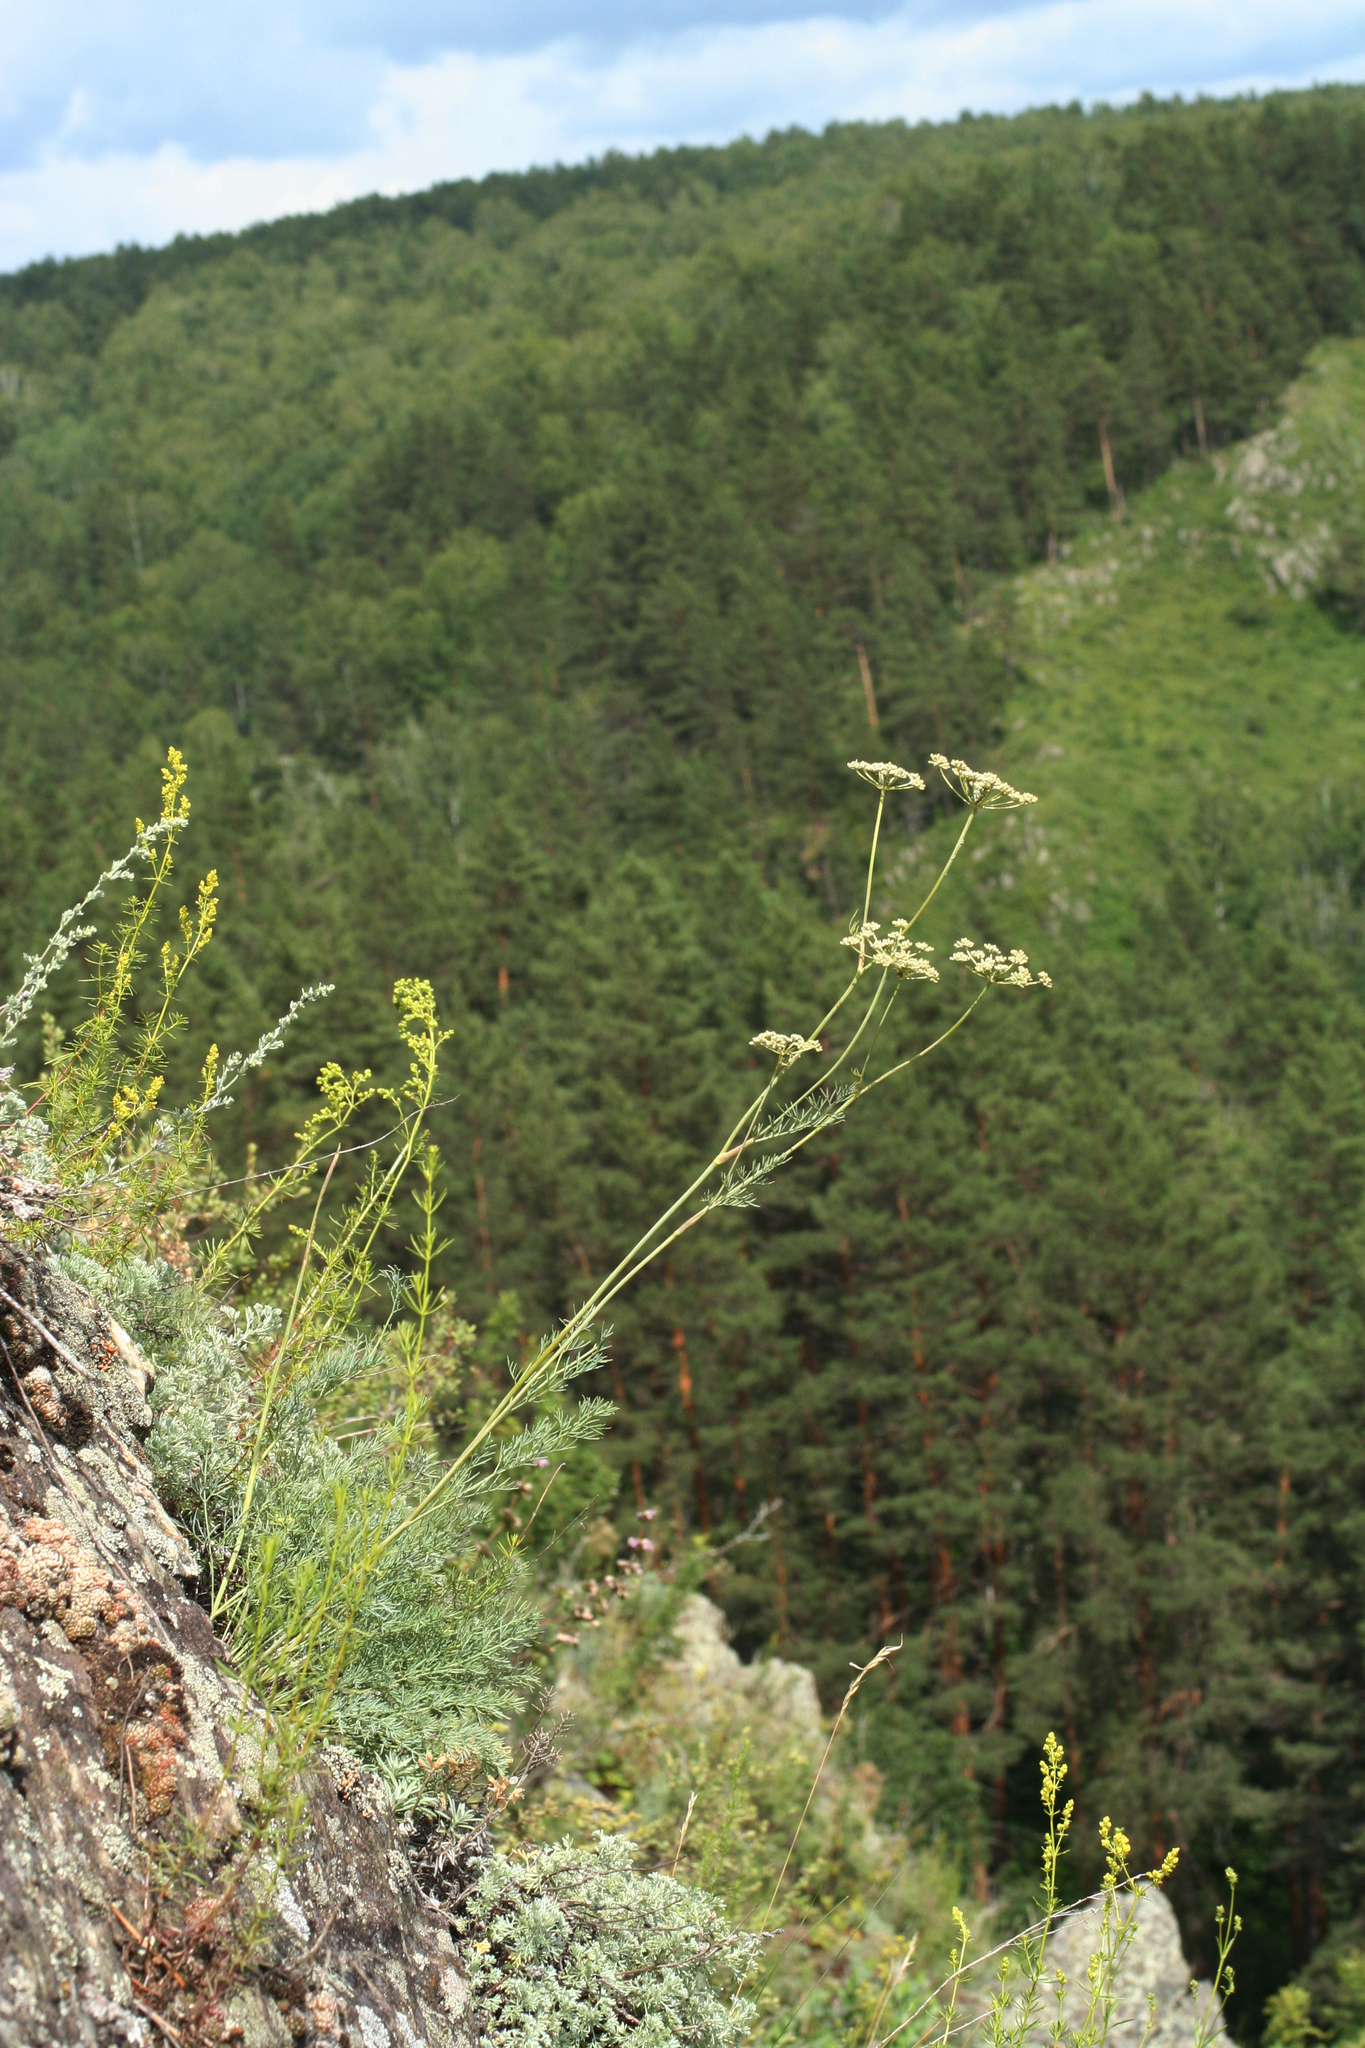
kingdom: Plantae
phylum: Tracheophyta
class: Magnoliopsida
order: Apiales
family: Apiaceae
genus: Seseli
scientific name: Seseli ledebourii
